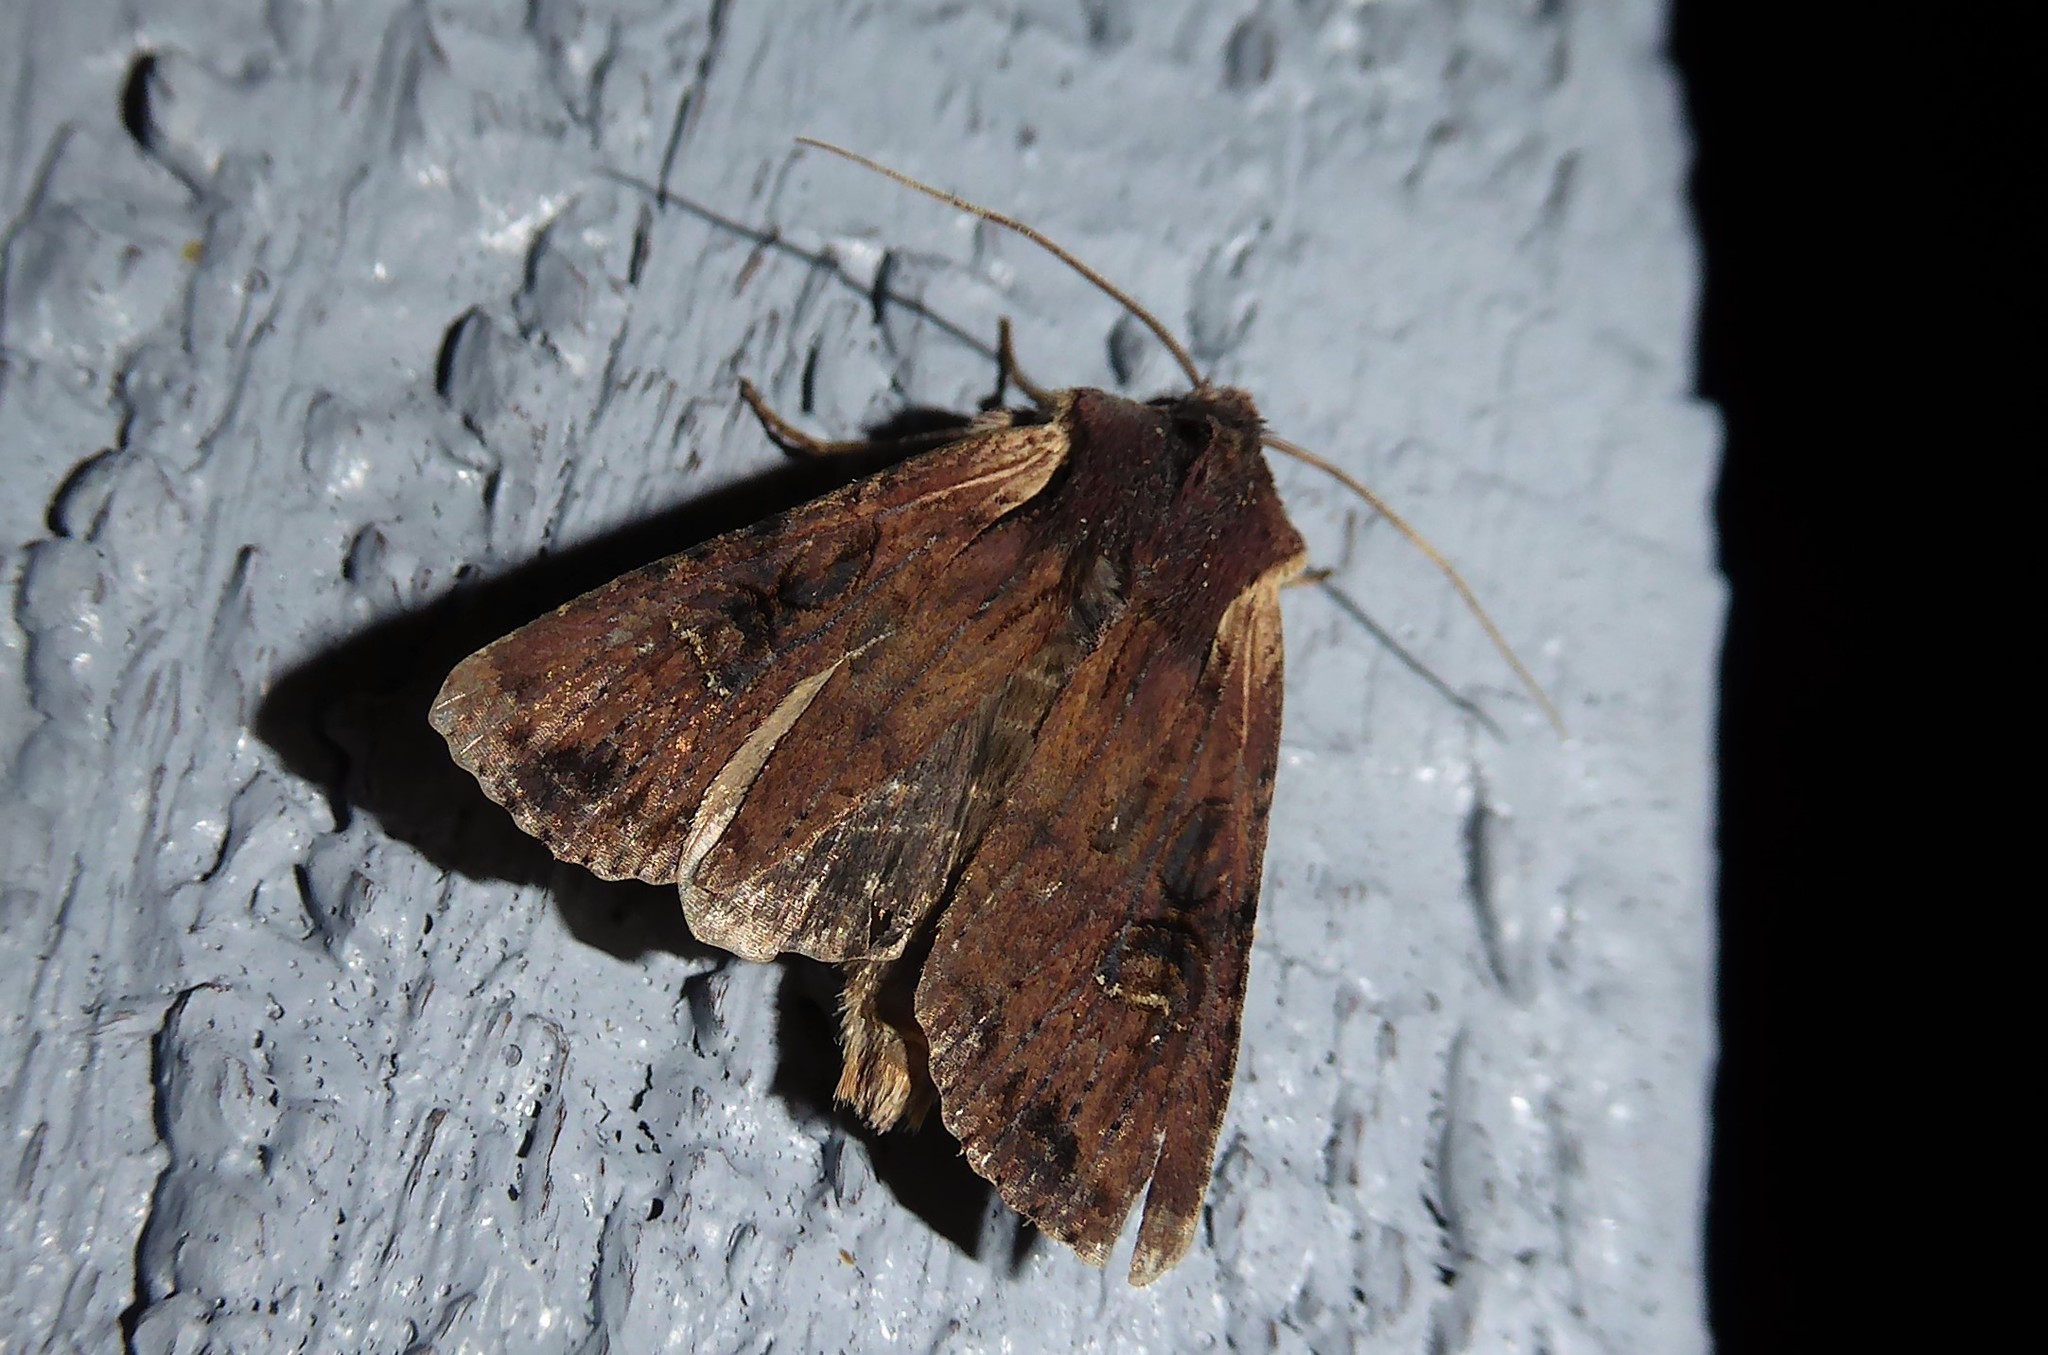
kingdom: Animalia
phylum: Arthropoda
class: Insecta
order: Lepidoptera
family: Noctuidae
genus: Ichneutica
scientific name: Ichneutica omoplaca
